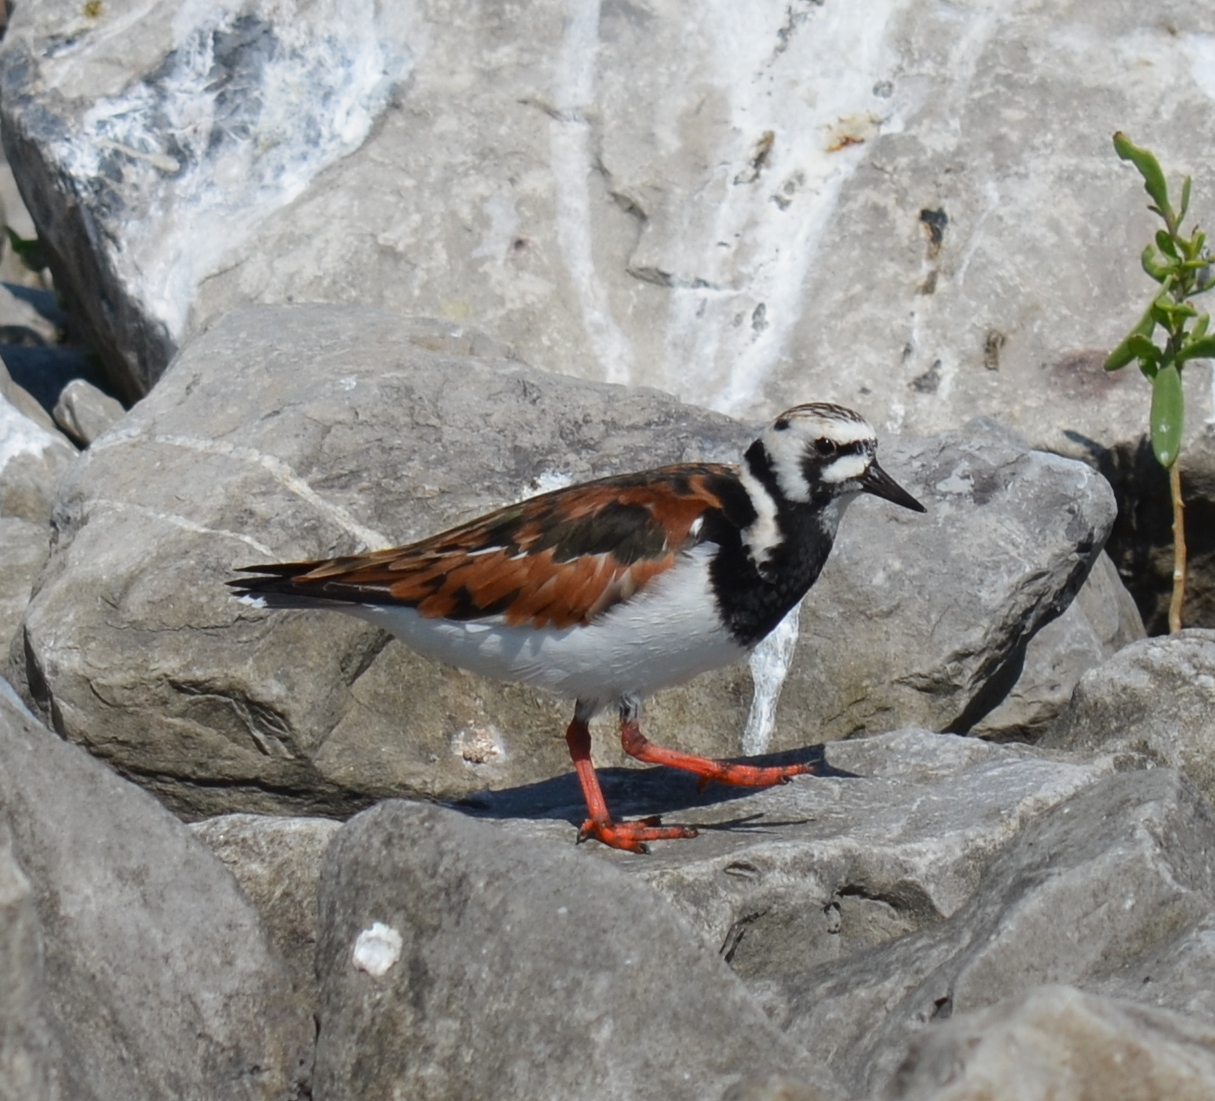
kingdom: Animalia
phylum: Chordata
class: Aves
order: Charadriiformes
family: Scolopacidae
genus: Arenaria
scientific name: Arenaria interpres
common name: Ruddy turnstone
